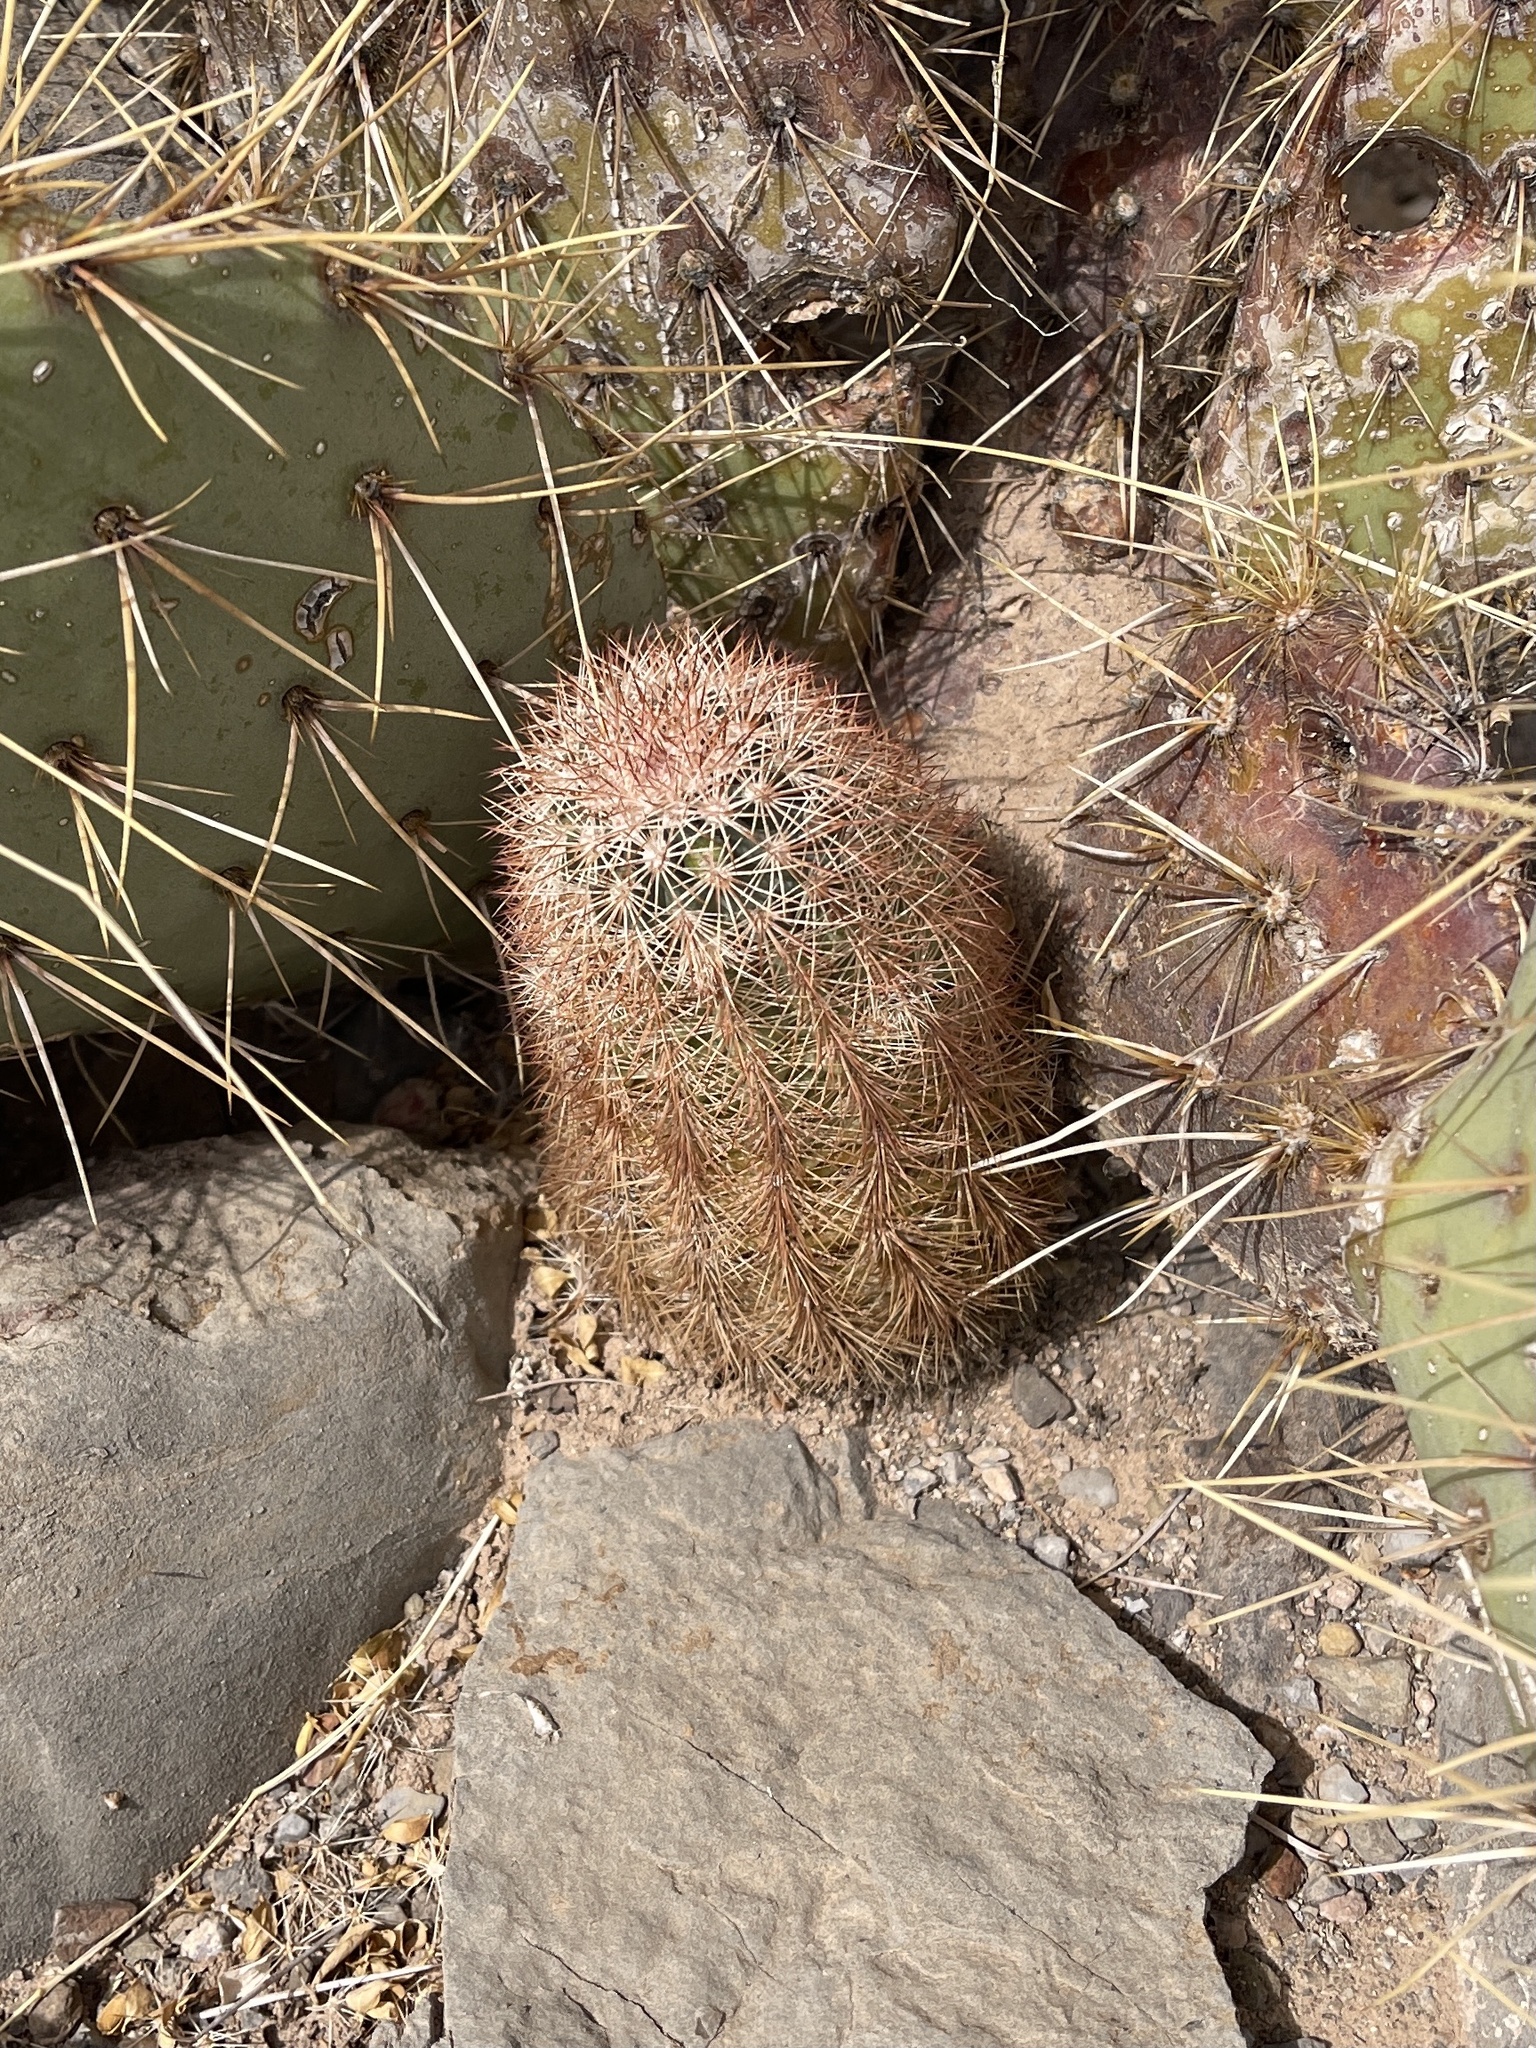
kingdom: Plantae
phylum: Tracheophyta
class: Magnoliopsida
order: Caryophyllales
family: Cactaceae
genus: Echinocereus
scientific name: Echinocereus dasyacanthus
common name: Spiny hedgehog cactus
